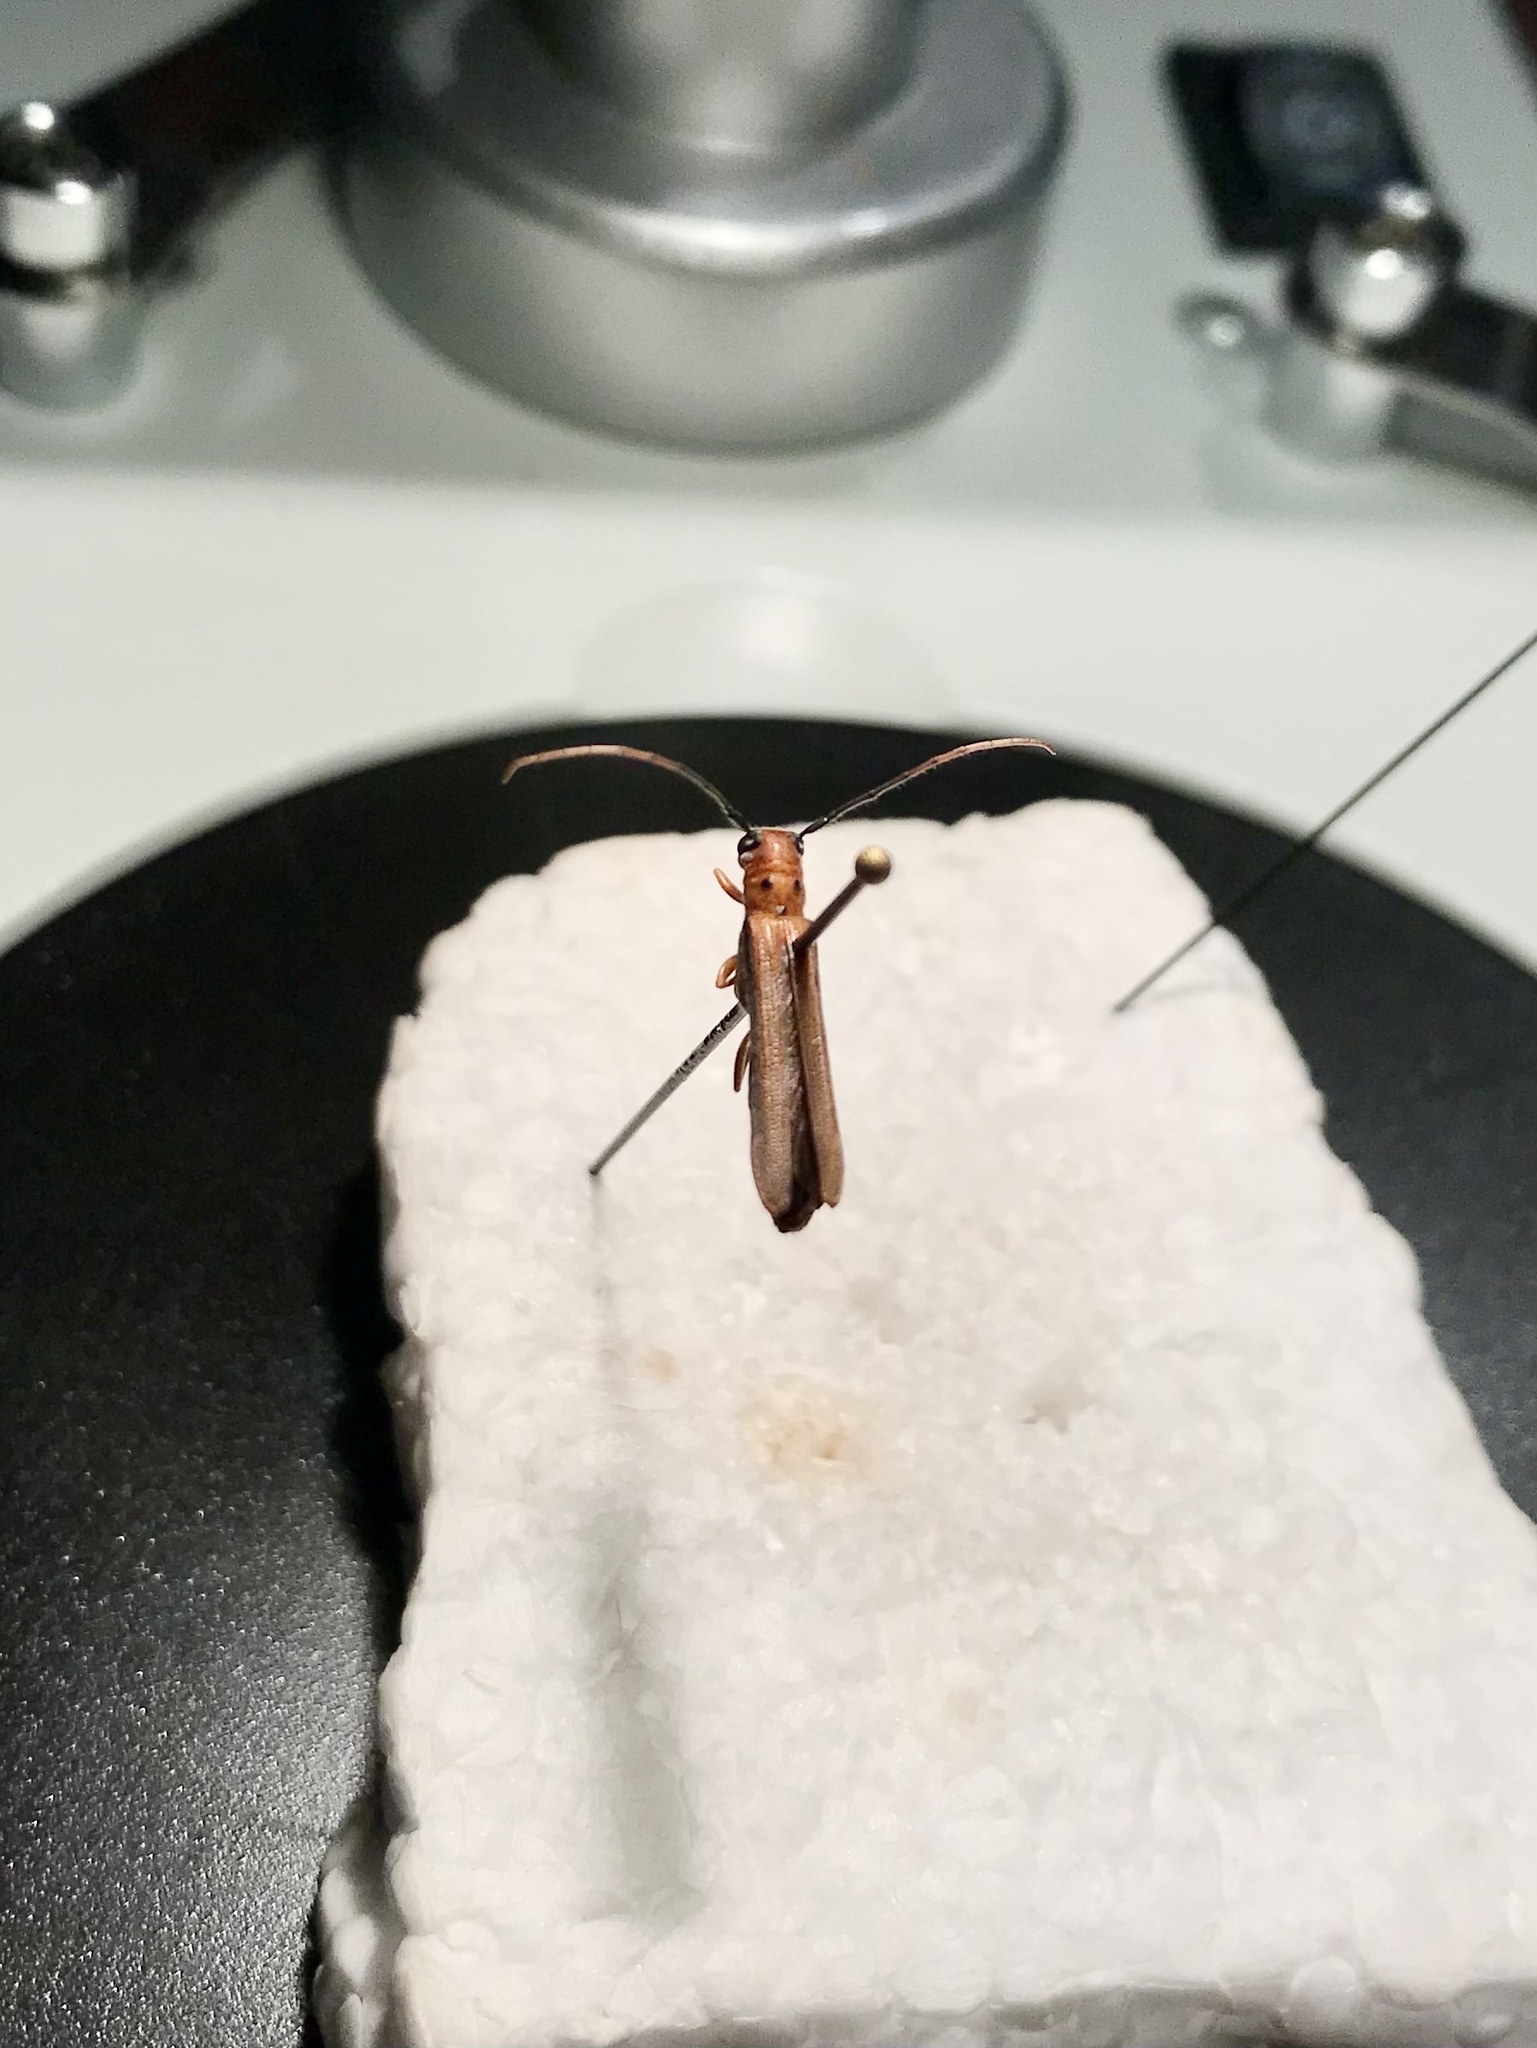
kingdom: Animalia
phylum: Arthropoda
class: Insecta
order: Coleoptera
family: Cerambycidae
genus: Oberea
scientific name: Oberea deficiens
